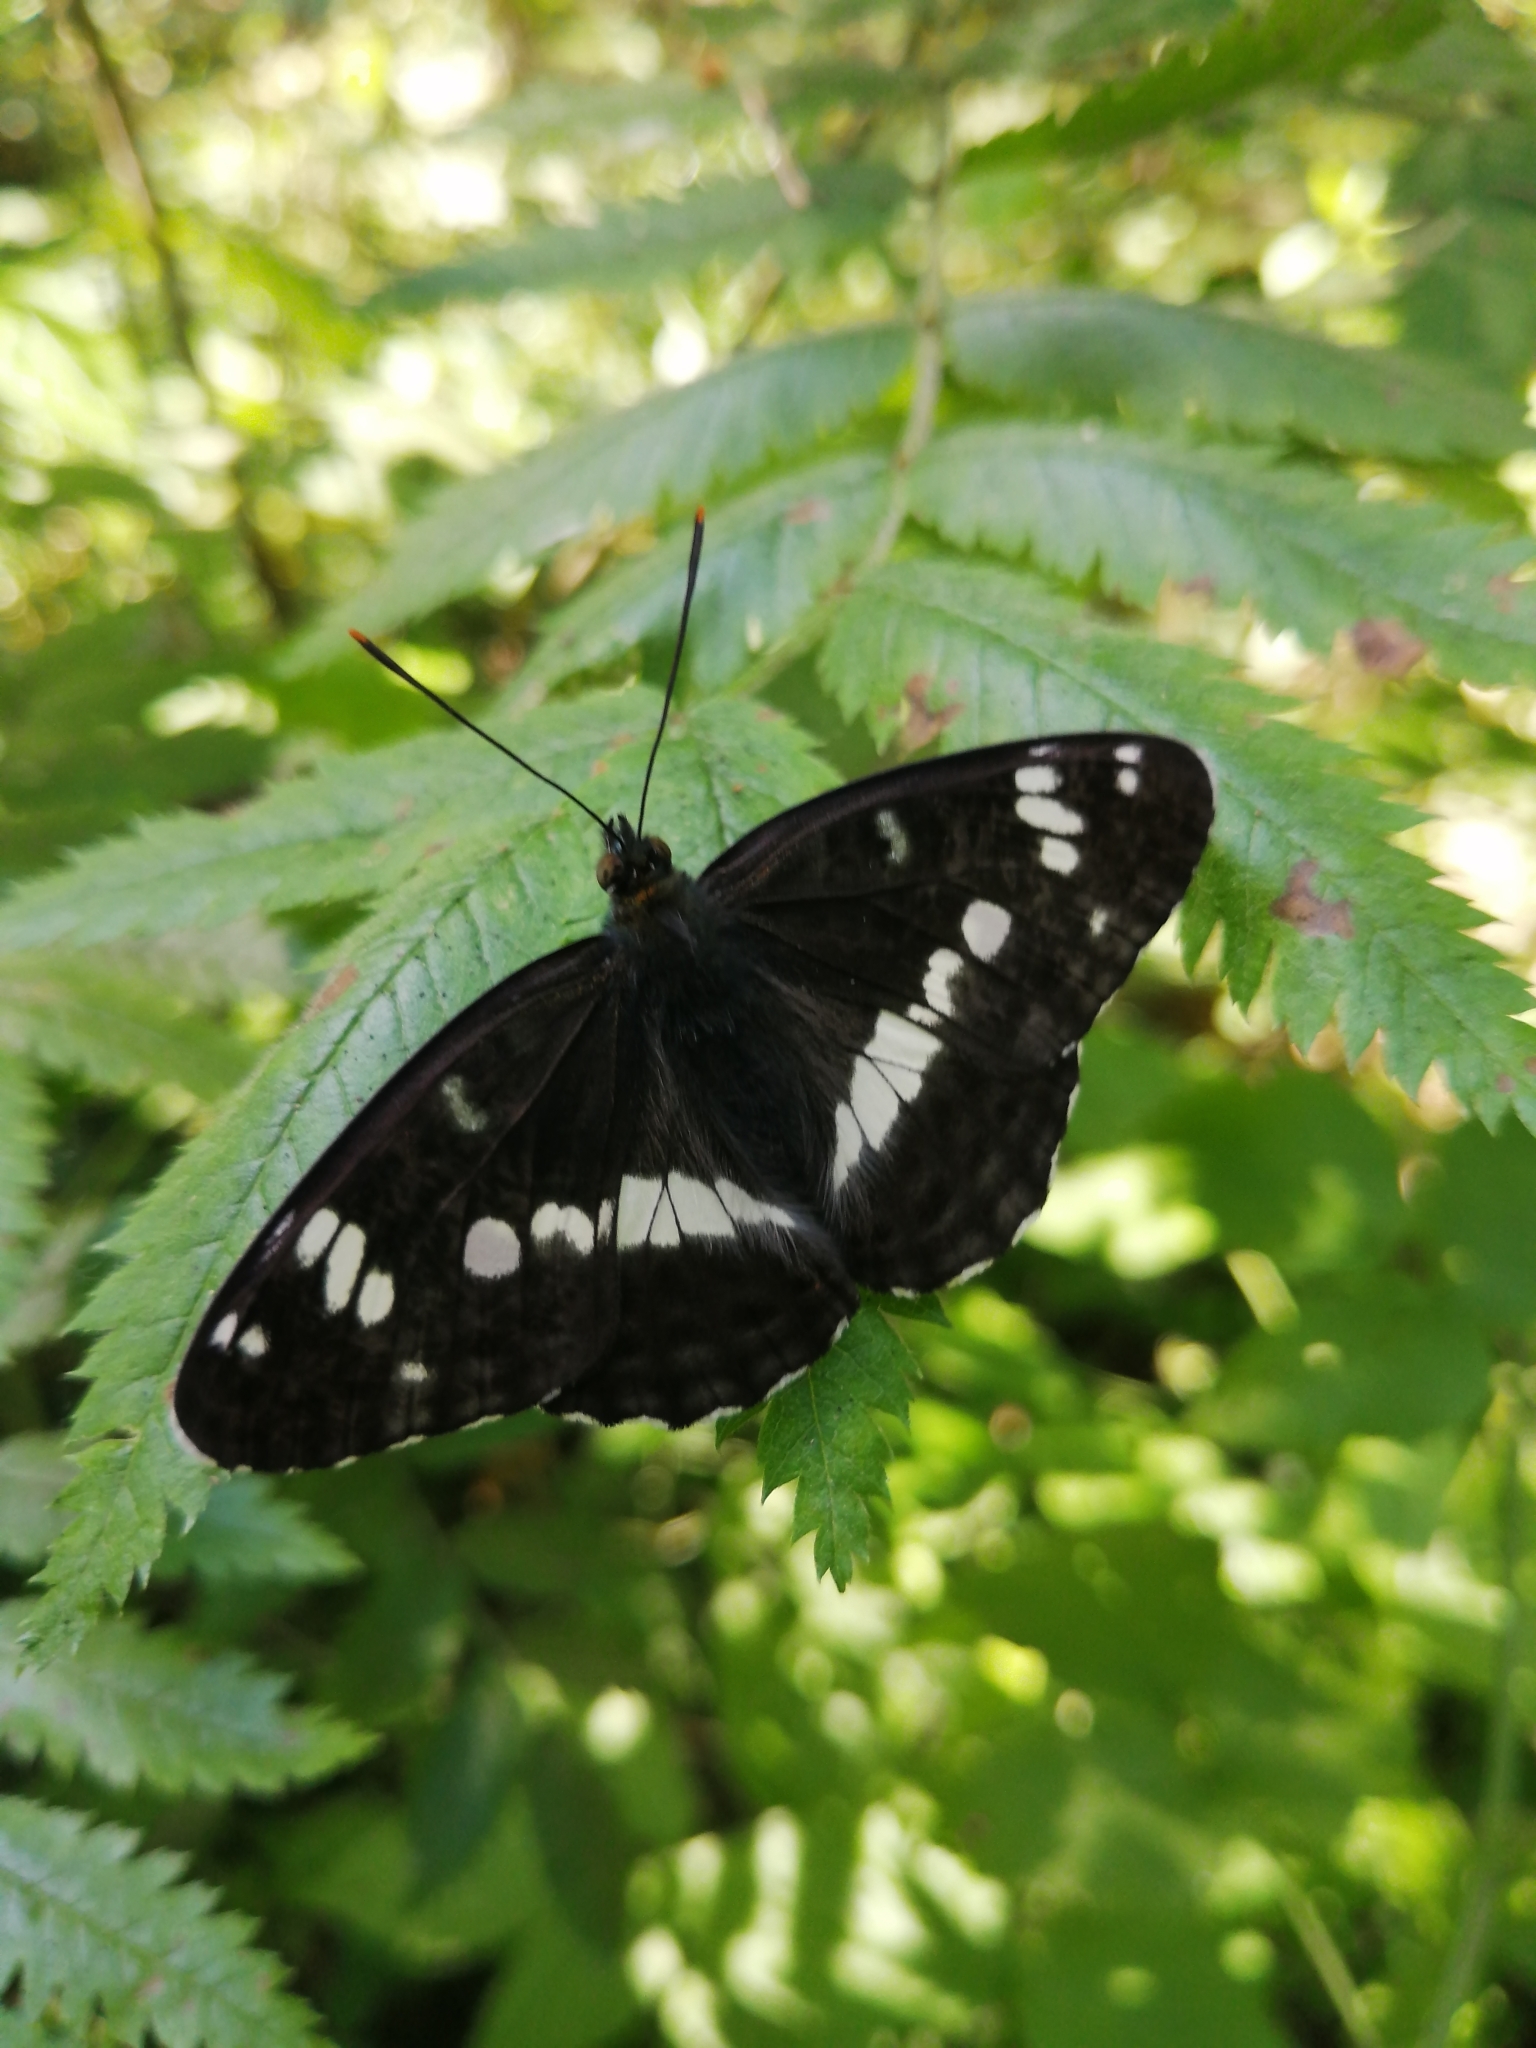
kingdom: Animalia
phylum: Arthropoda
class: Insecta
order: Lepidoptera
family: Nymphalidae
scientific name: Nymphalidae
